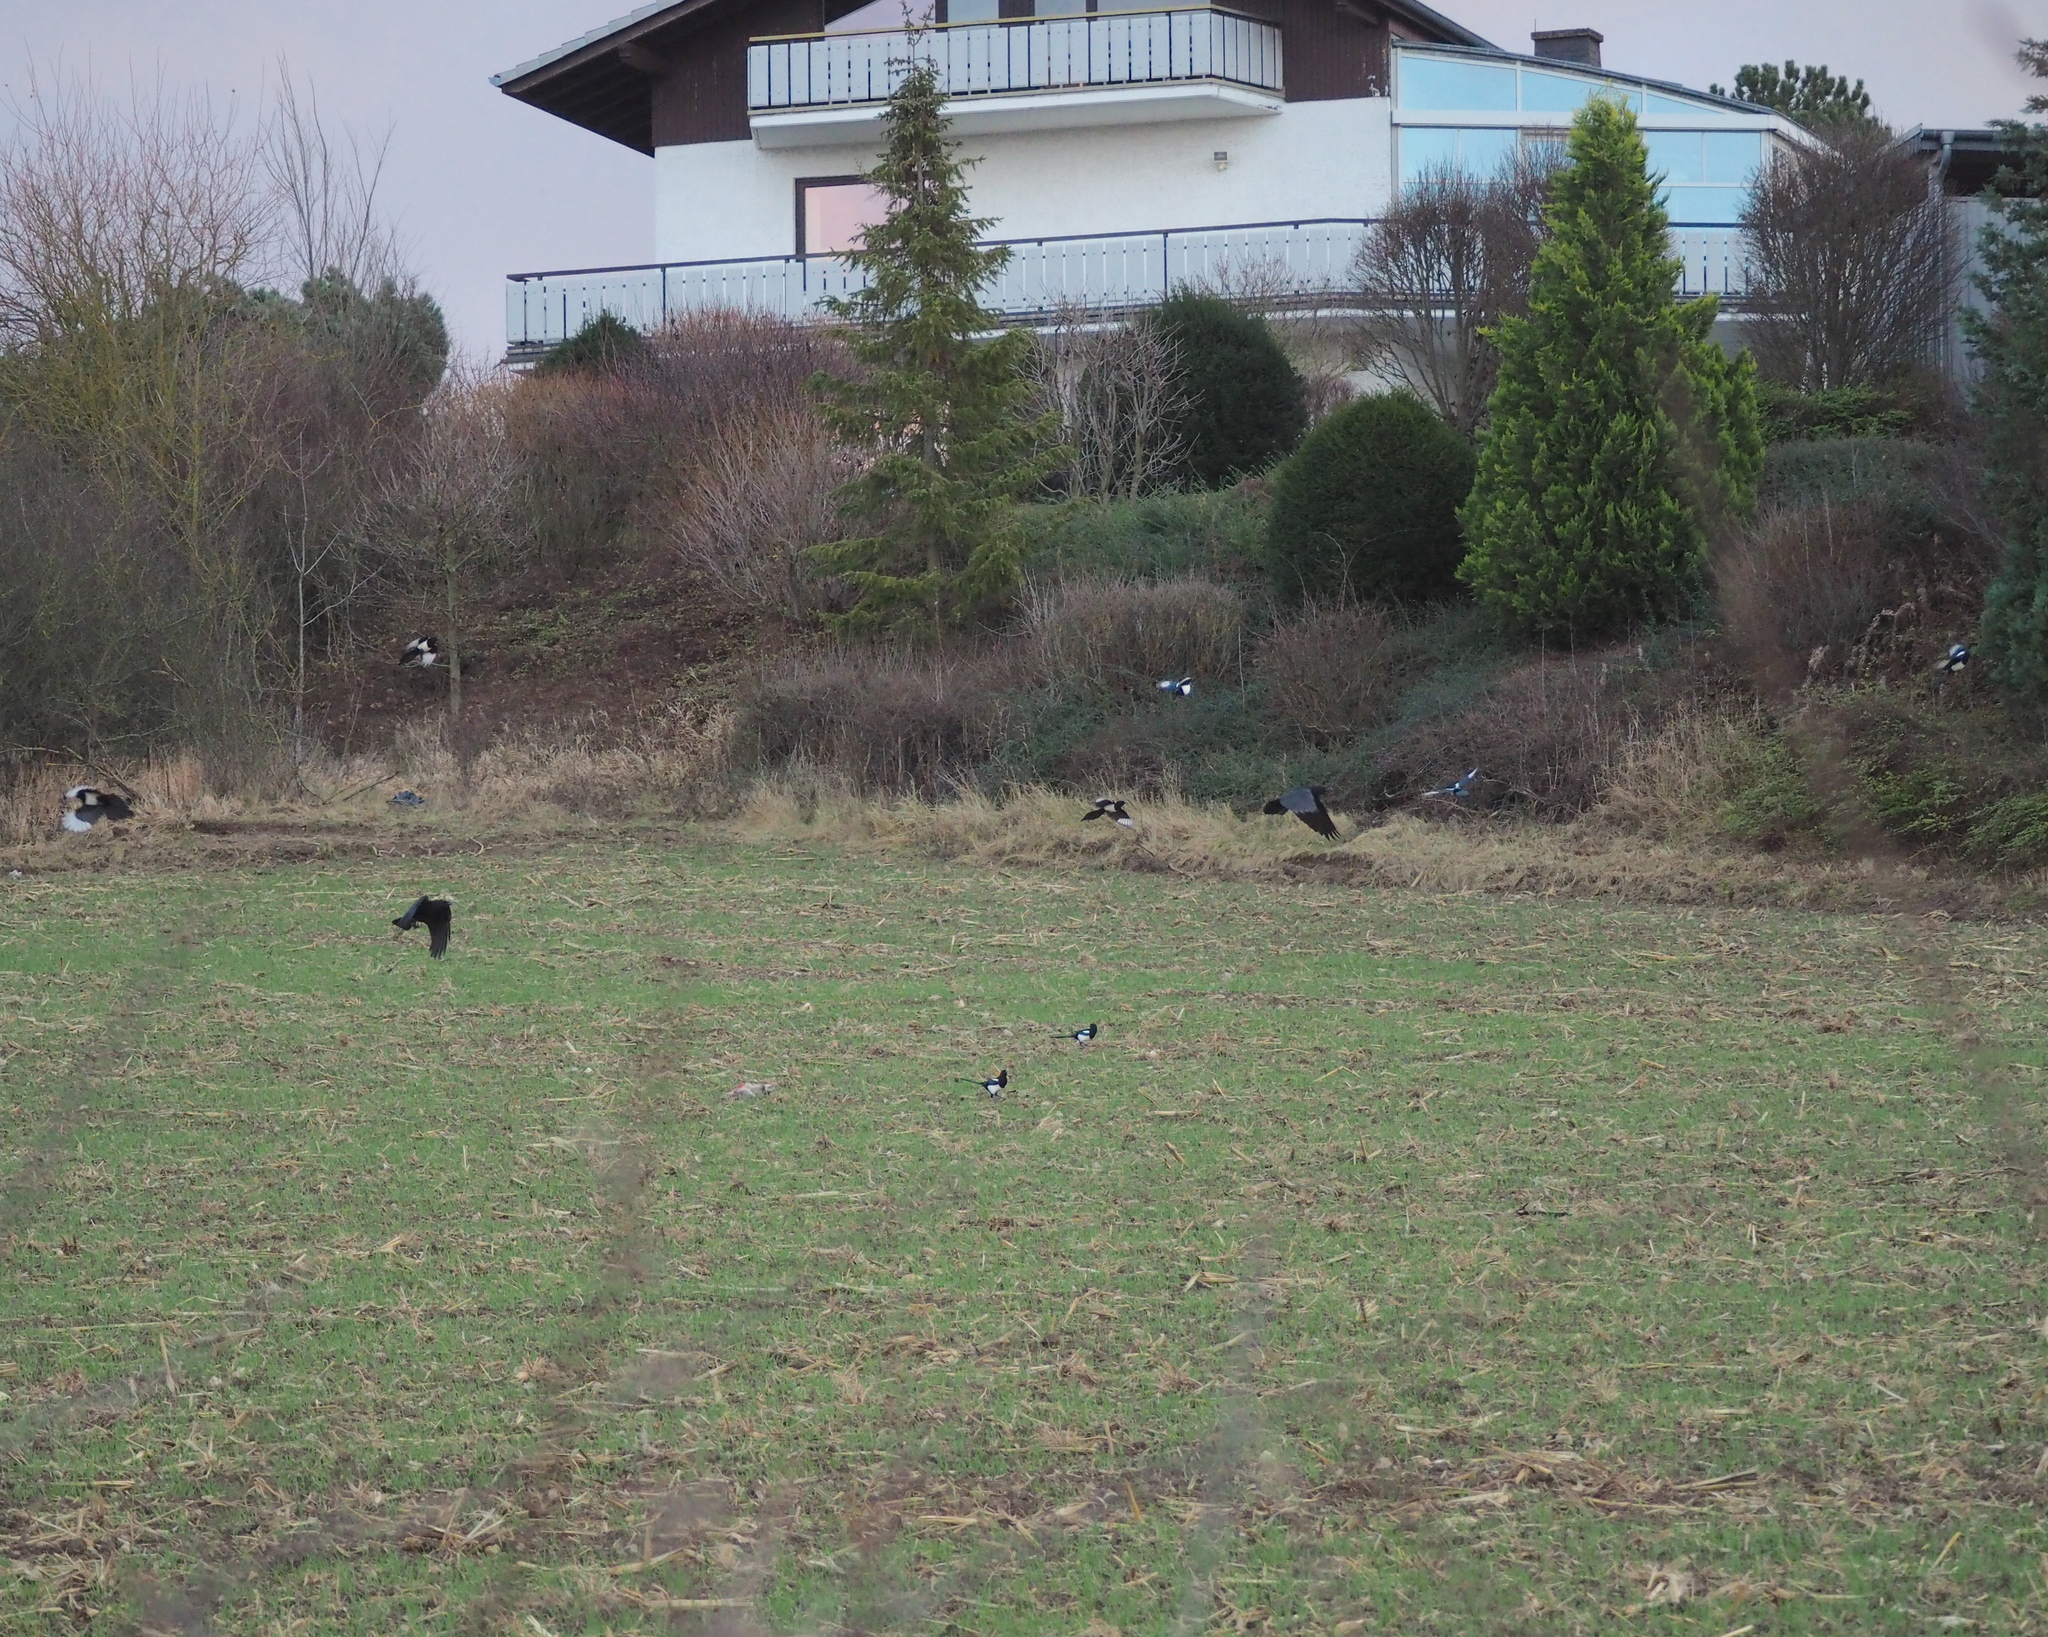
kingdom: Animalia
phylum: Chordata
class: Aves
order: Passeriformes
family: Corvidae
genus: Pica
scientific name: Pica pica
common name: Eurasian magpie
